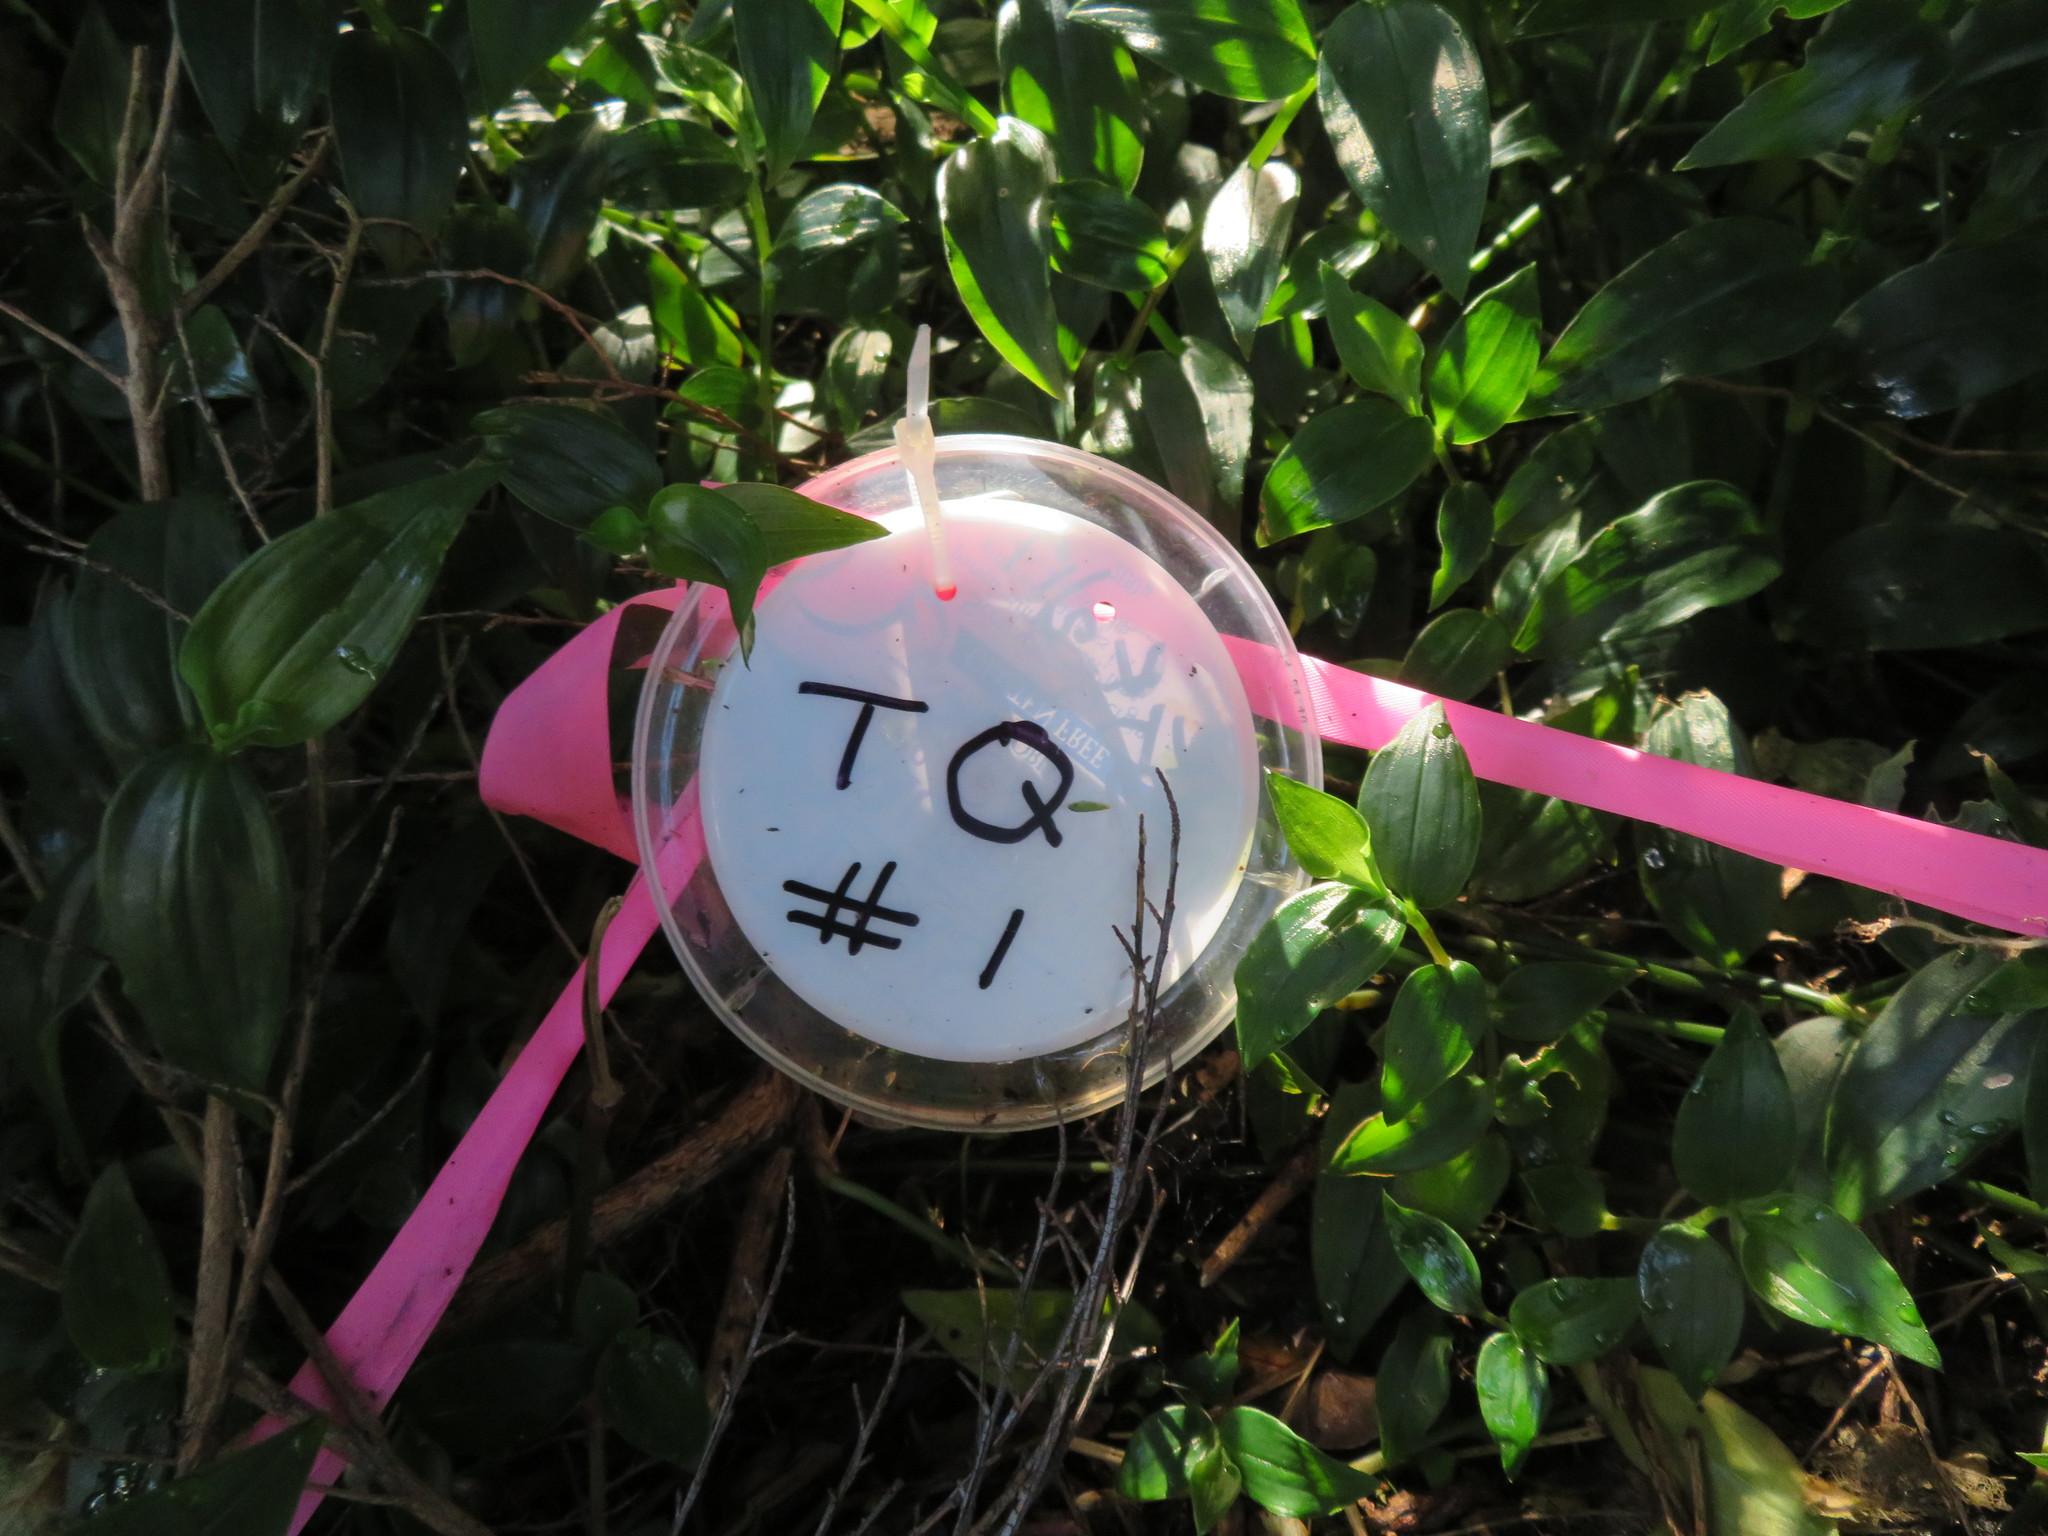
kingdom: Plantae
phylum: Tracheophyta
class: Magnoliopsida
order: Piperales
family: Piperaceae
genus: Macropiper
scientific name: Macropiper excelsum
